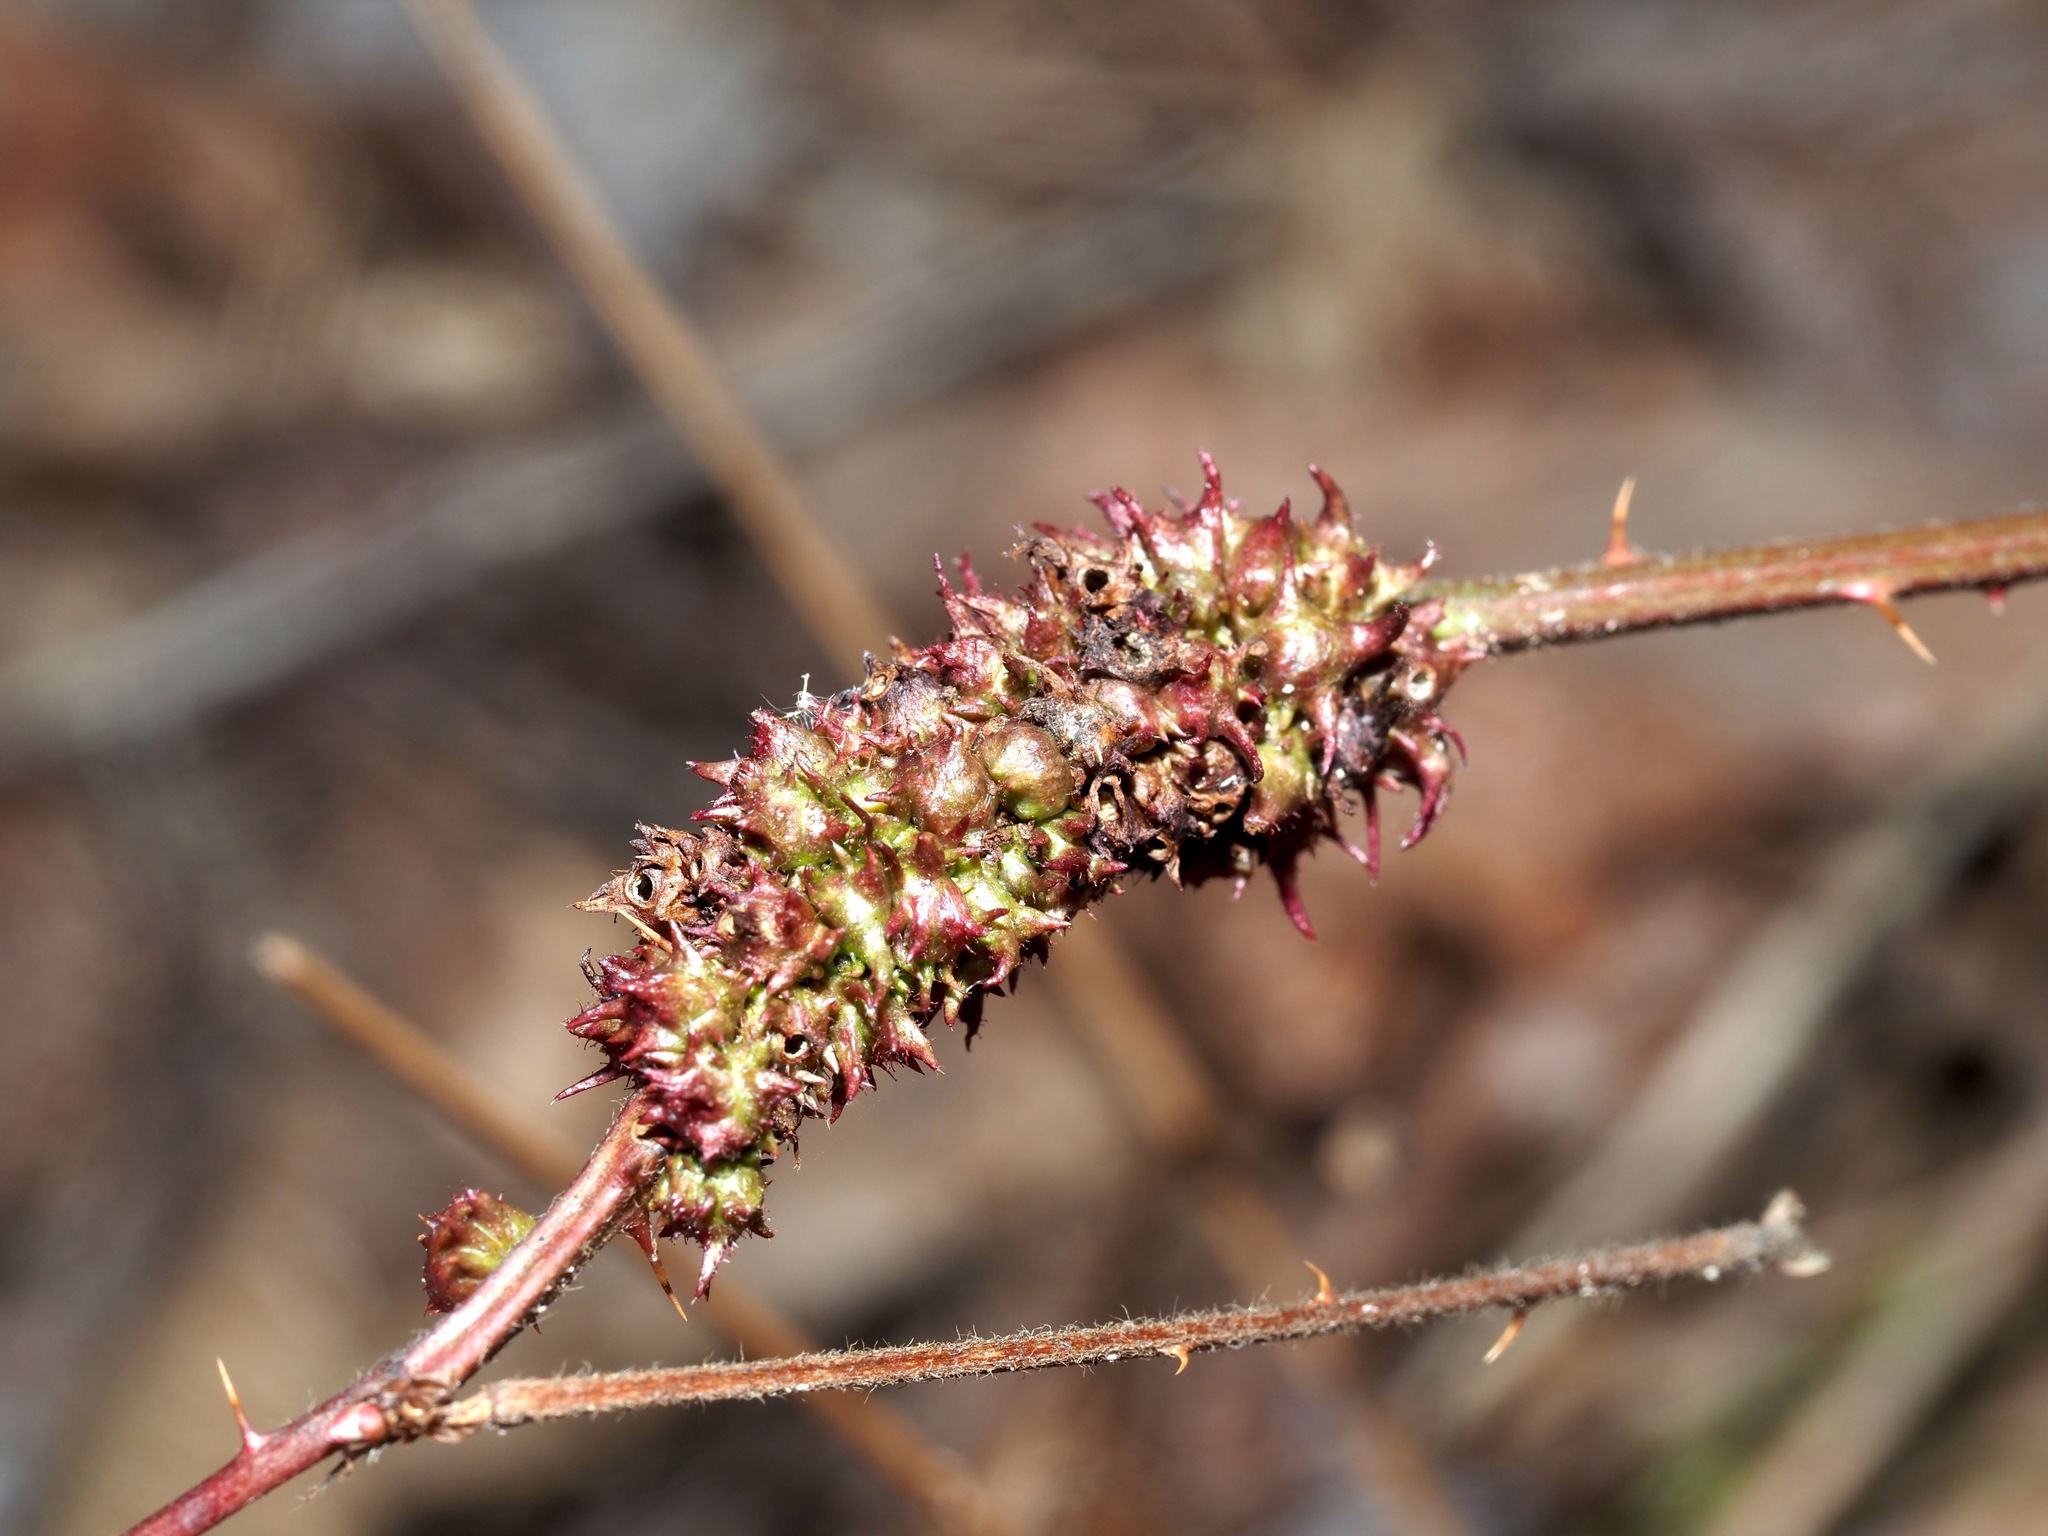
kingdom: Animalia
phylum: Arthropoda
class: Insecta
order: Hymenoptera
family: Cynipidae
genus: Diastrophus
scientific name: Diastrophus
